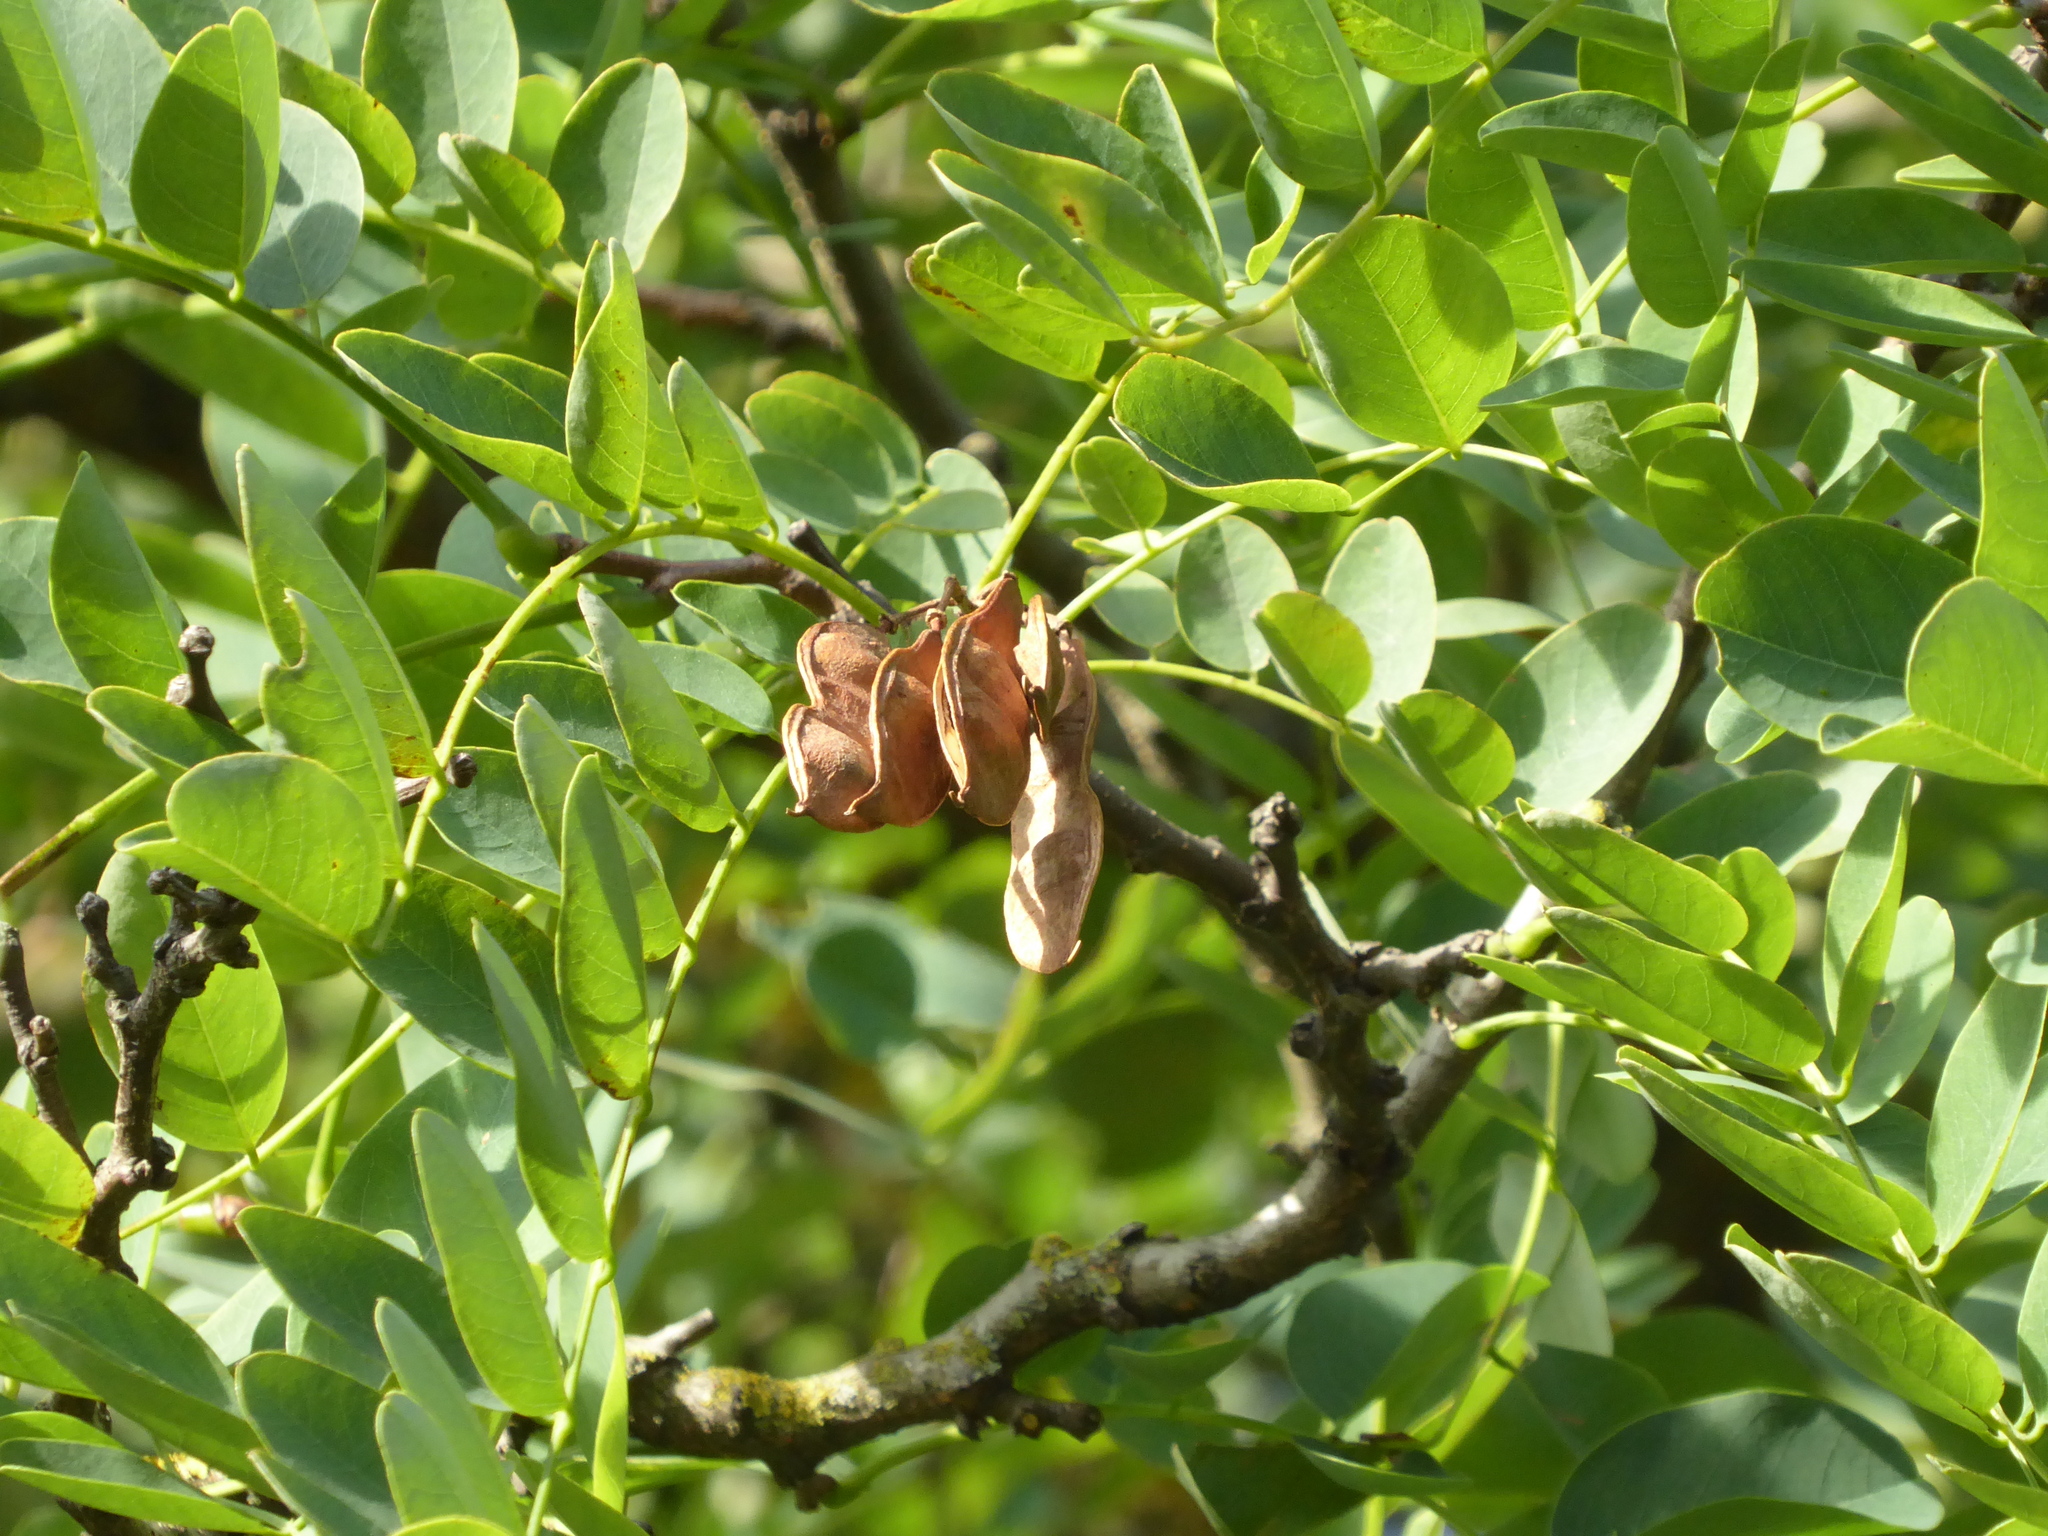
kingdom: Plantae
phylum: Tracheophyta
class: Magnoliopsida
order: Fabales
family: Fabaceae
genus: Robinia
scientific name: Robinia pseudoacacia
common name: Black locust
